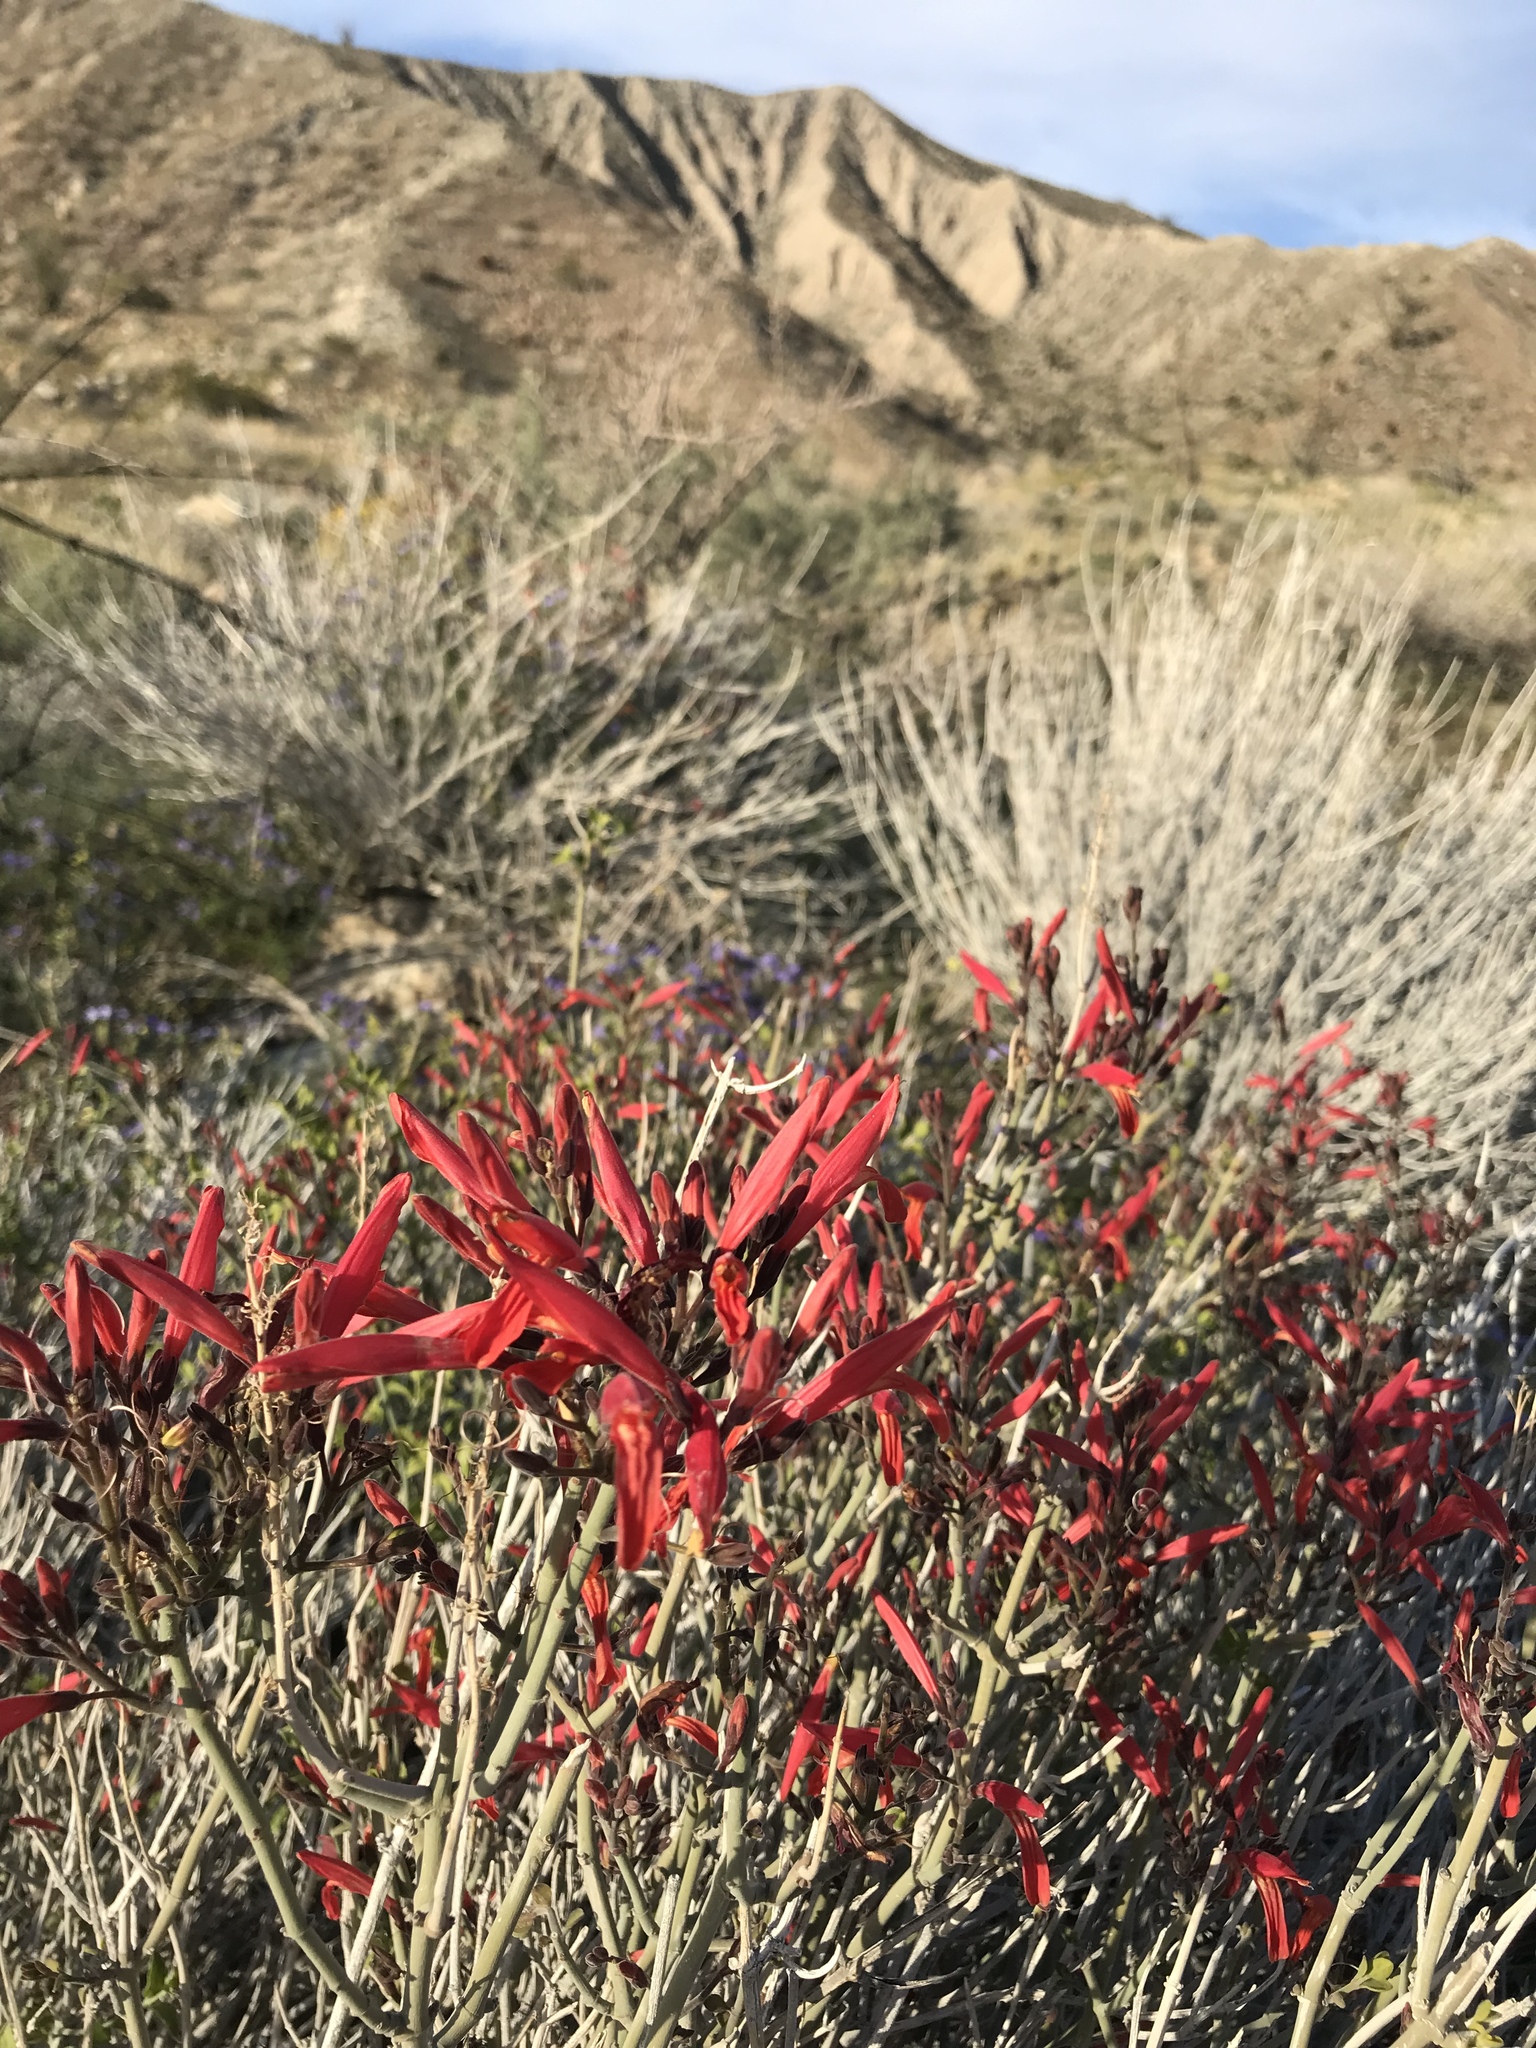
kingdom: Plantae
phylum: Tracheophyta
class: Magnoliopsida
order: Lamiales
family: Acanthaceae
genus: Justicia
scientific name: Justicia californica
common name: Chuparosa-honeysuckle
